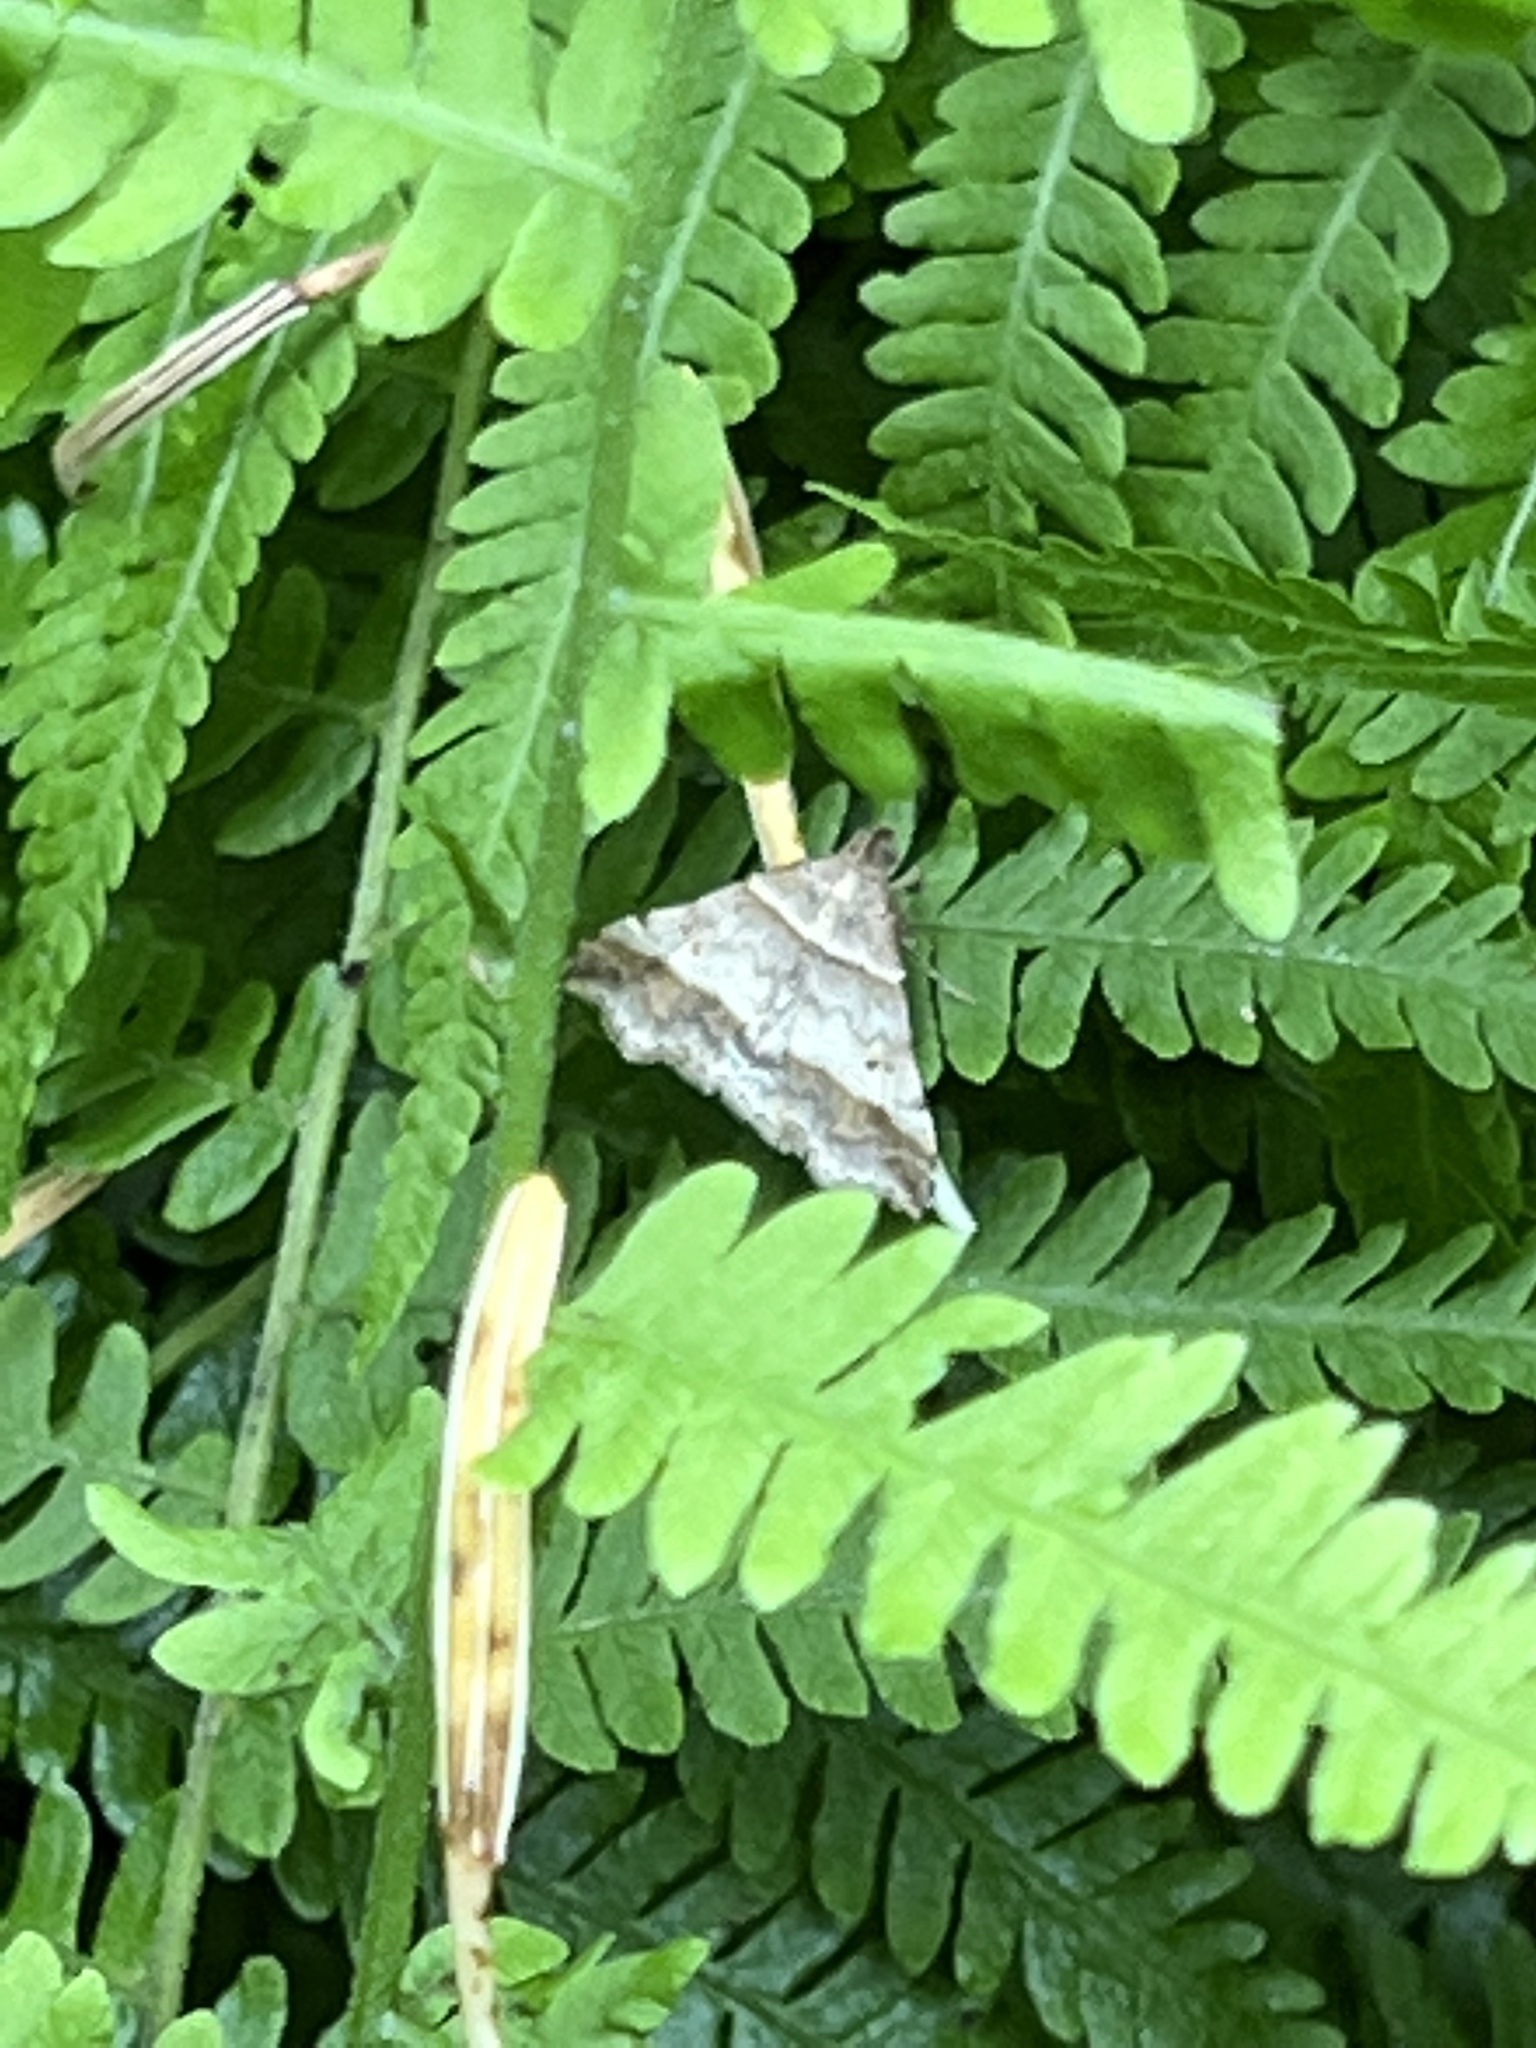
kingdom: Animalia
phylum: Arthropoda
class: Insecta
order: Lepidoptera
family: Erebidae
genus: Phaeolita
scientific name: Phaeolita pyramusalis
